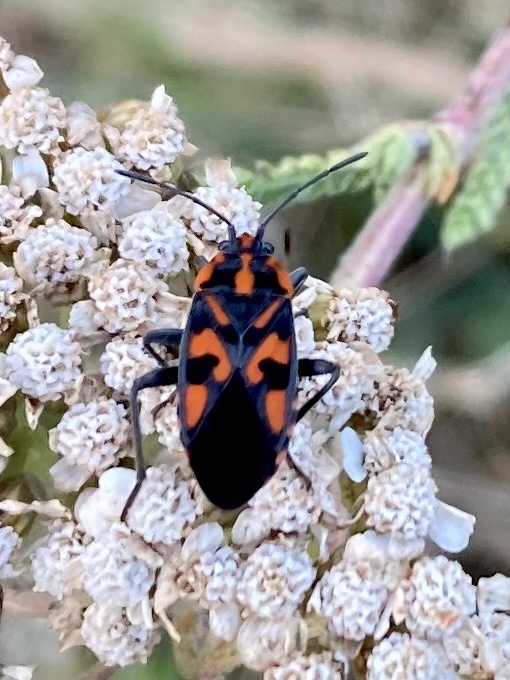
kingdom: Animalia
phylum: Arthropoda
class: Insecta
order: Hemiptera
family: Lygaeidae
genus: Spilostethus
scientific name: Spilostethus saxatilis
